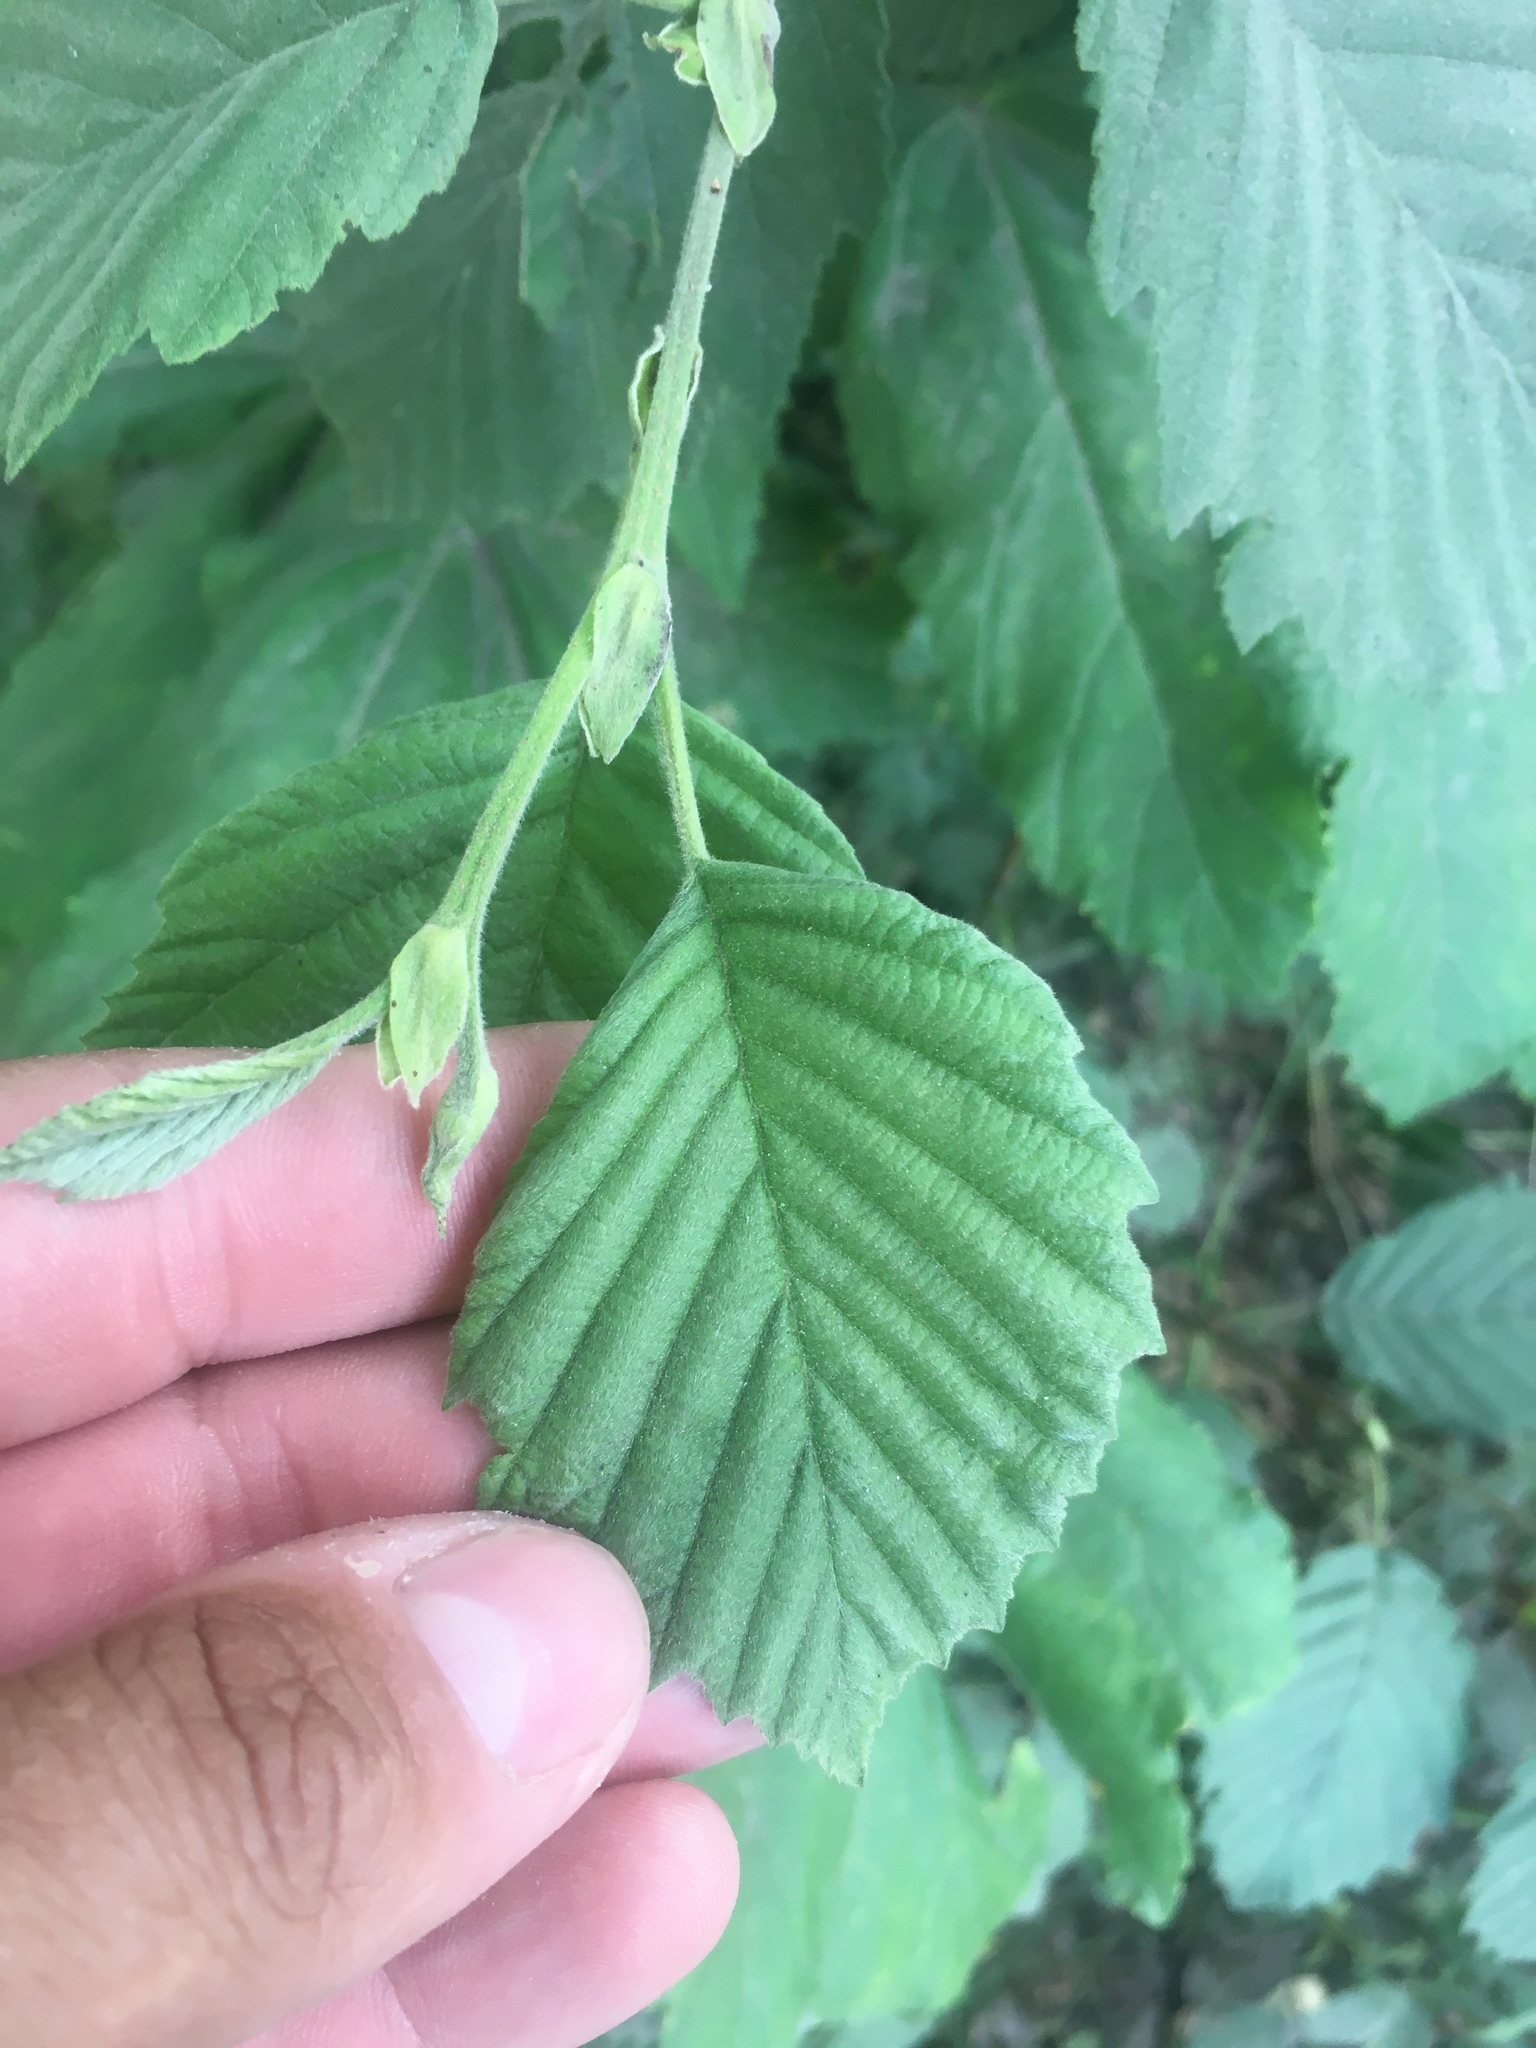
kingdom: Plantae
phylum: Tracheophyta
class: Magnoliopsida
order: Fagales
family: Betulaceae
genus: Alnus
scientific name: Alnus incana
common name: Grey alder
